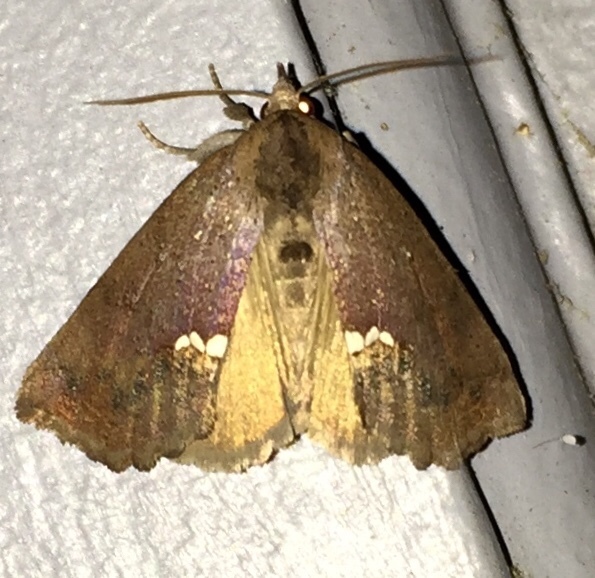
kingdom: Animalia
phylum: Arthropoda
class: Insecta
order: Lepidoptera
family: Erebidae
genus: Hypsoropha
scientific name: Hypsoropha hormos
